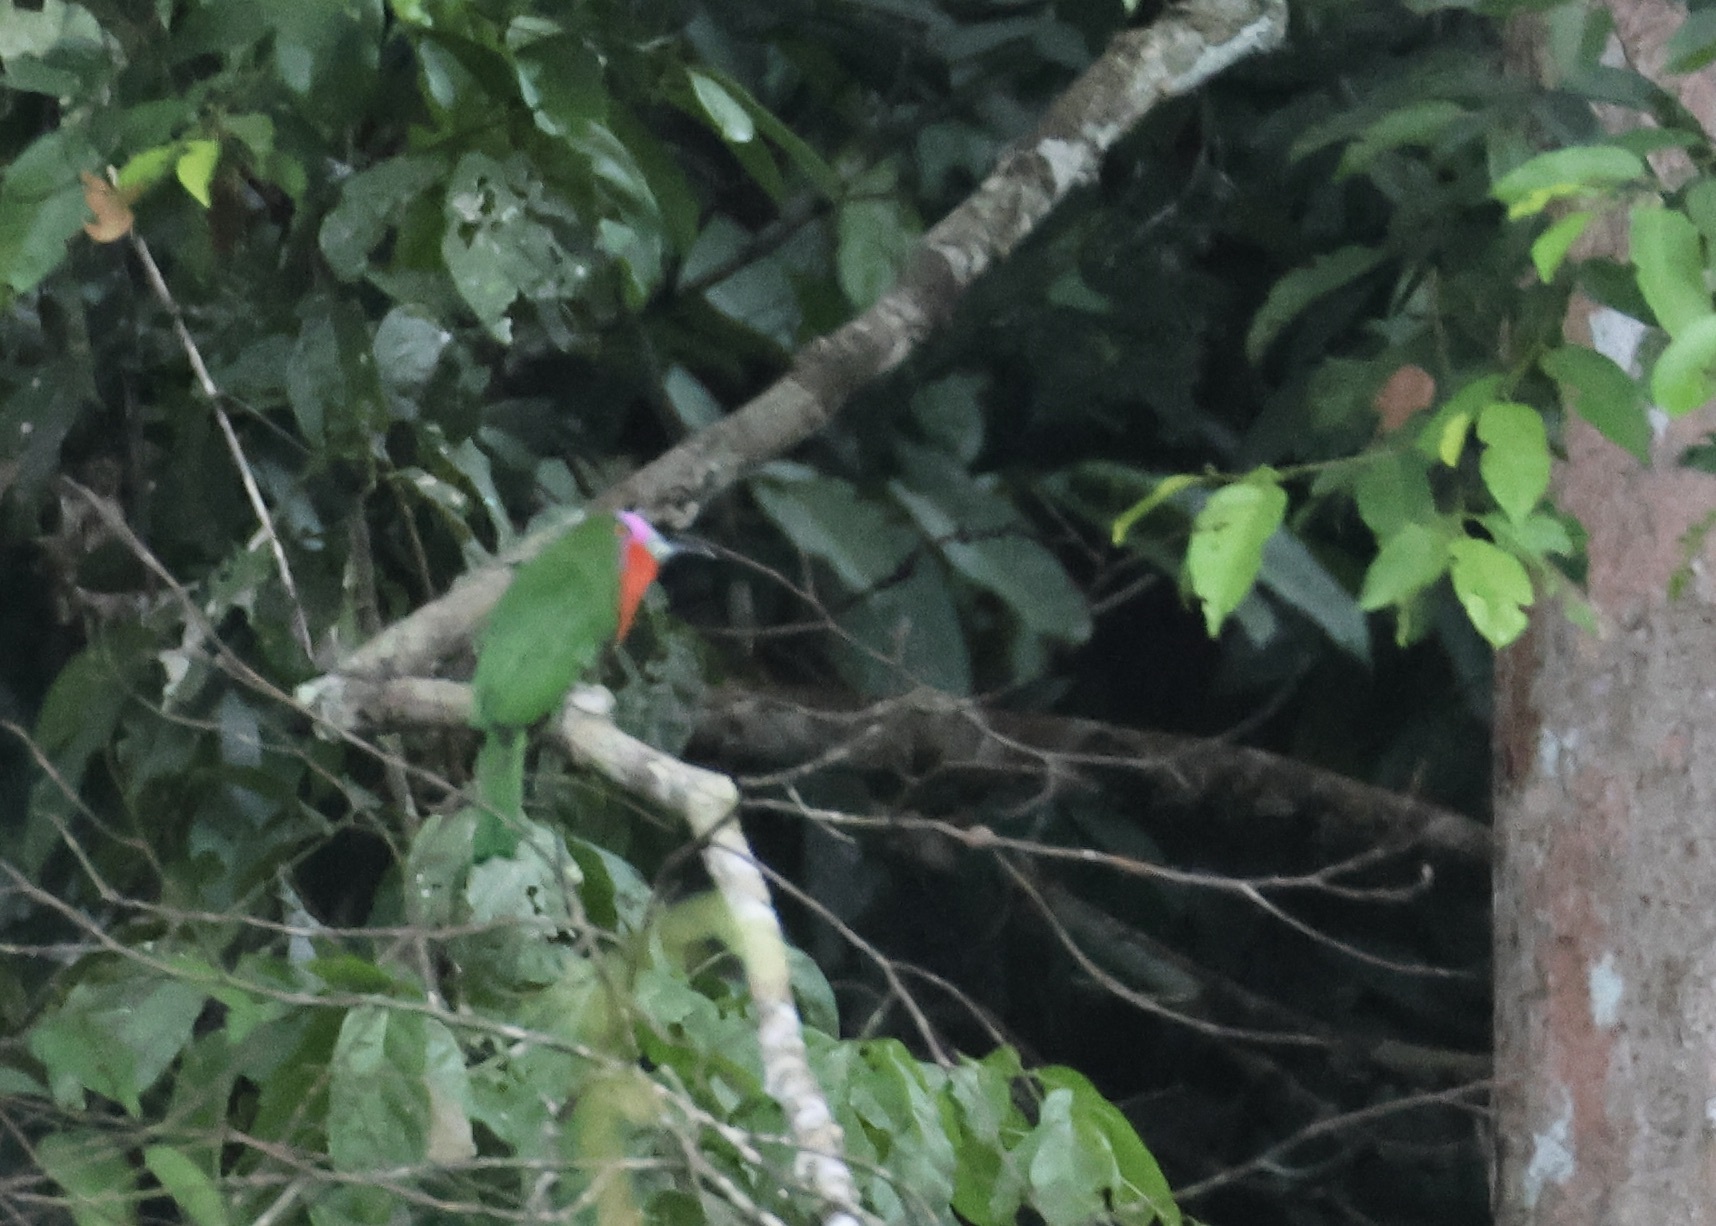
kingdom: Animalia
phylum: Chordata
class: Aves
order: Coraciiformes
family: Meropidae
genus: Nyctyornis
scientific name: Nyctyornis amictus
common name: Red-bearded bee-eater
